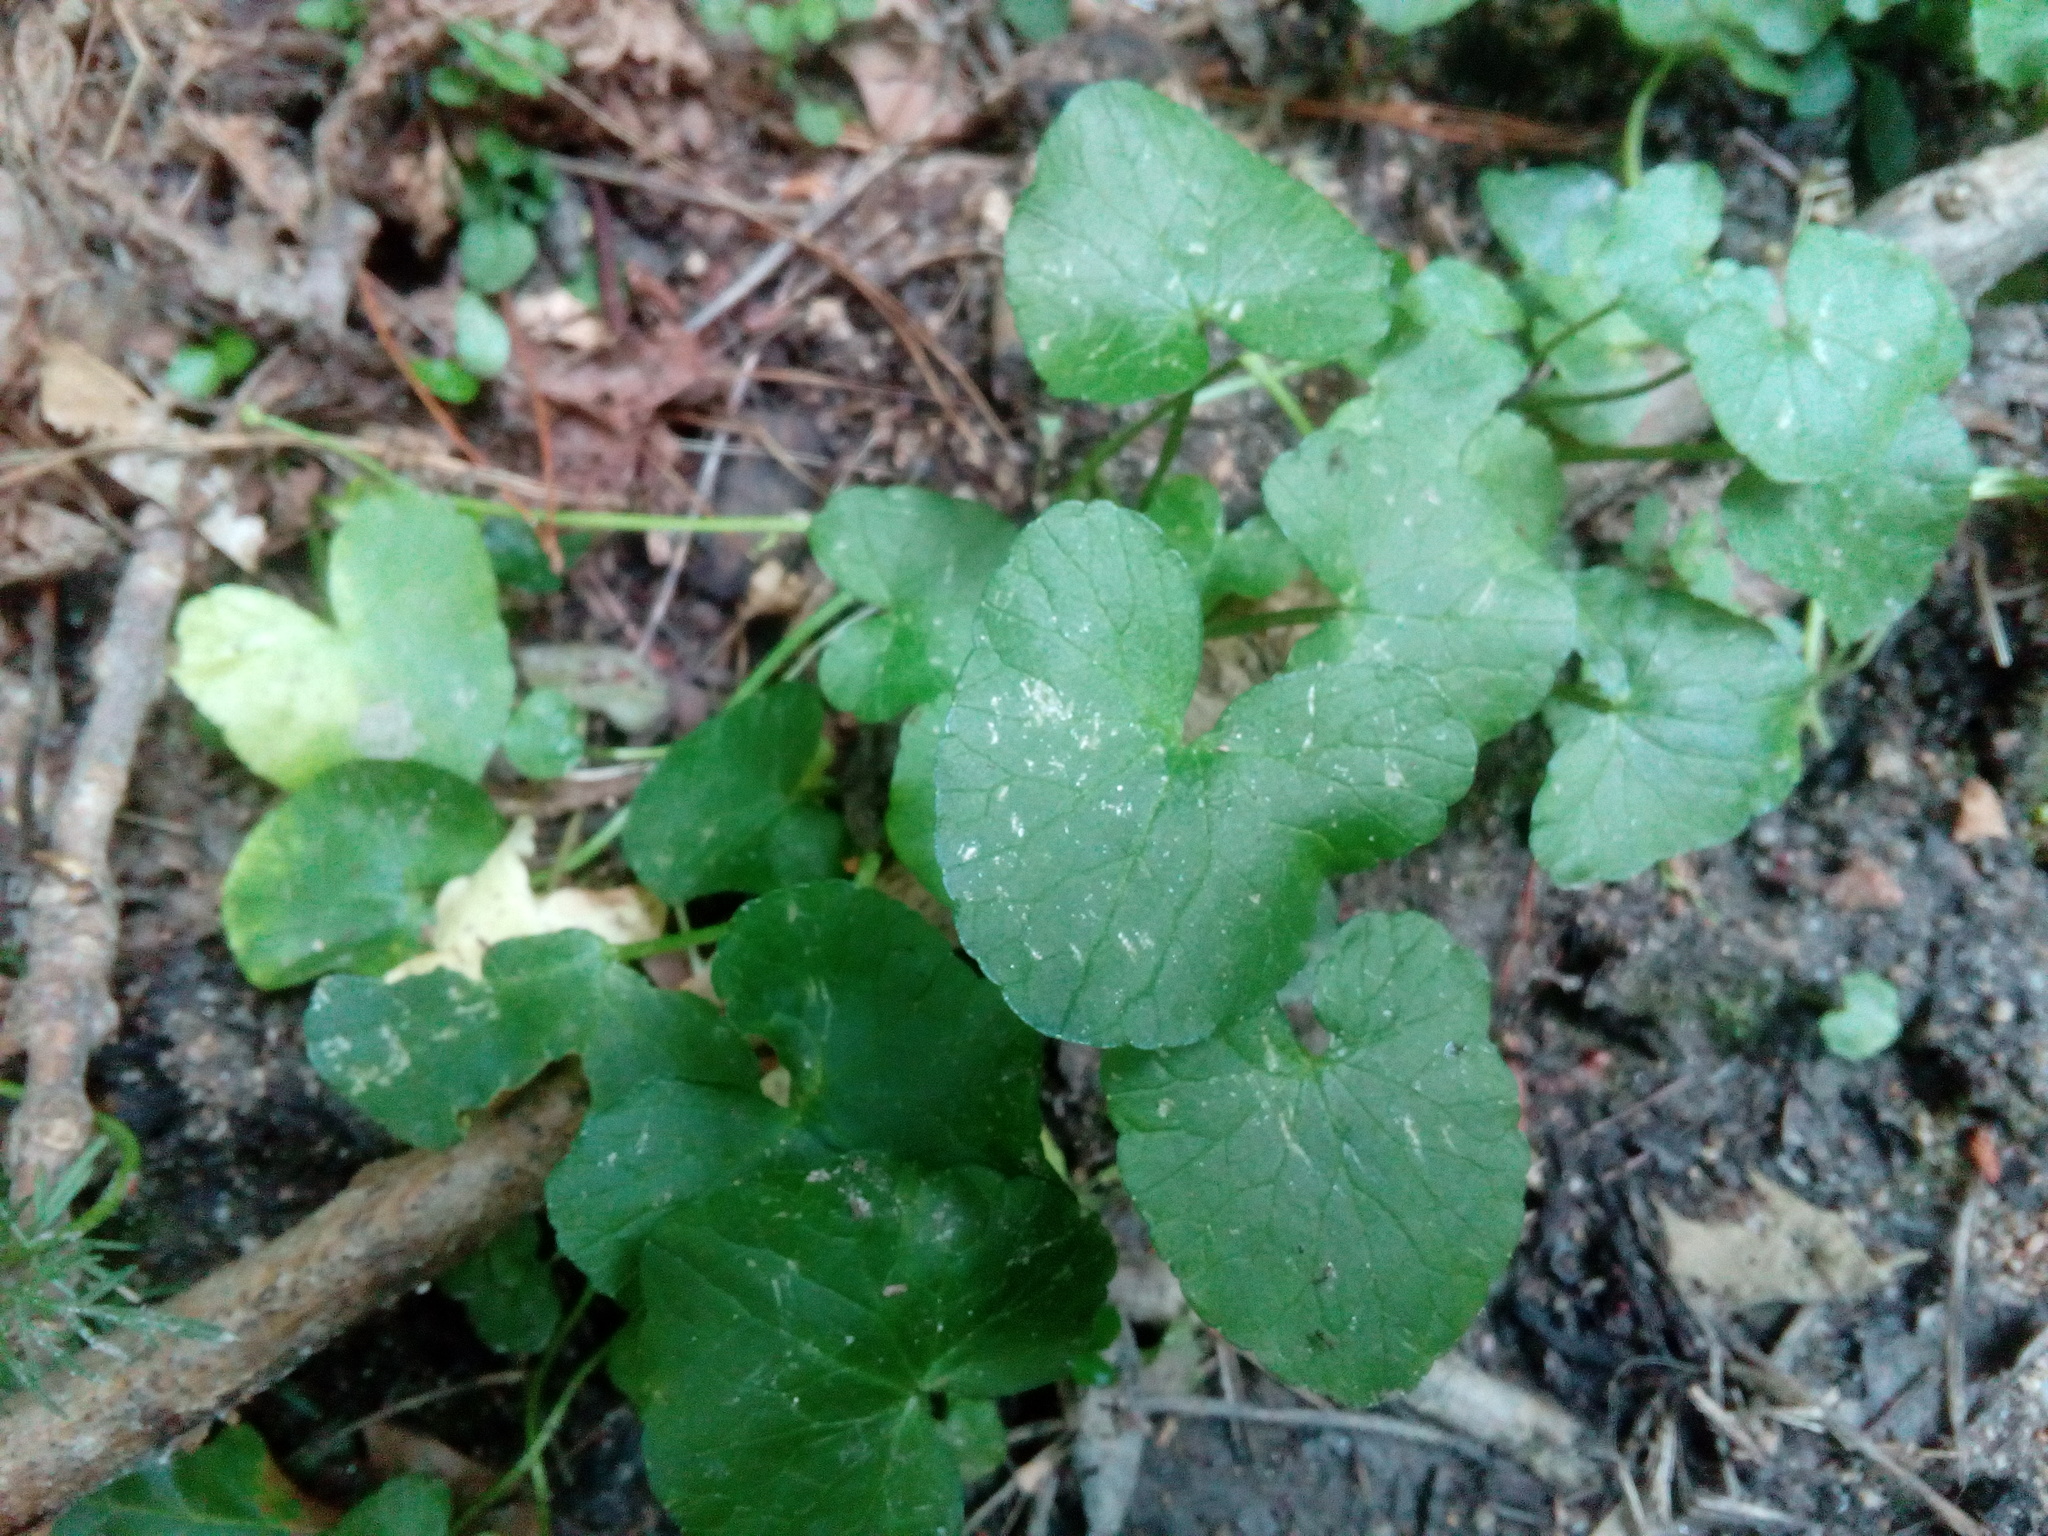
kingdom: Plantae
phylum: Tracheophyta
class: Magnoliopsida
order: Ranunculales
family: Ranunculaceae
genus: Ficaria
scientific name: Ficaria verna
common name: Lesser celandine
